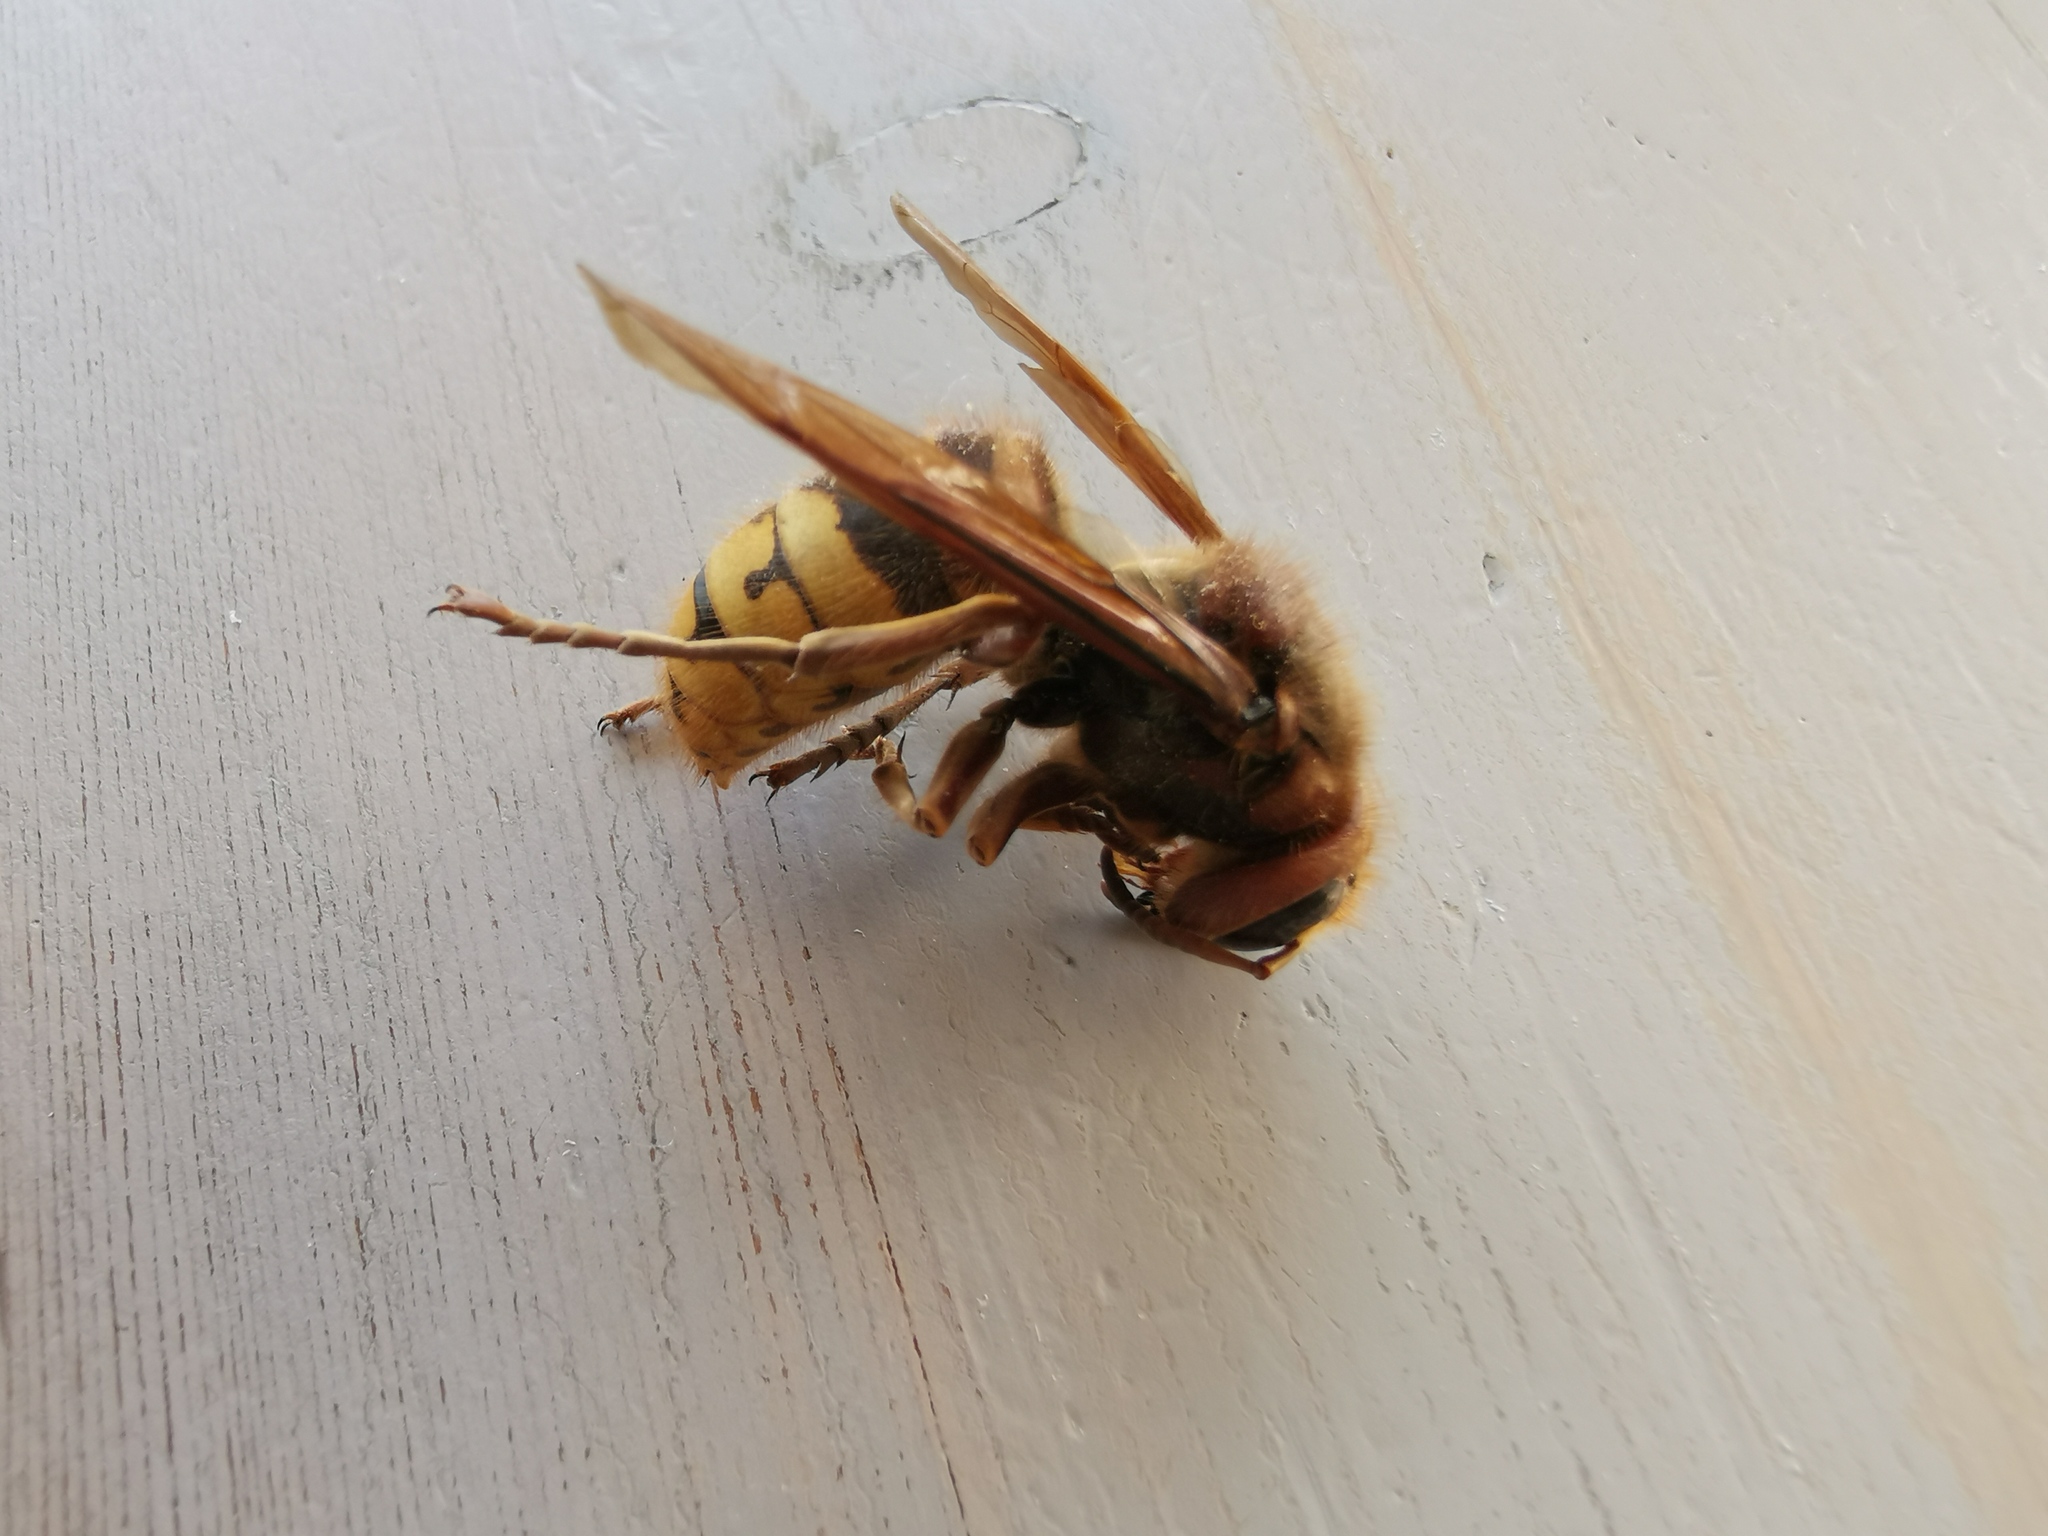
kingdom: Animalia
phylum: Arthropoda
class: Insecta
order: Hymenoptera
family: Vespidae
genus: Vespa
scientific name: Vespa crabro
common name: Hornet
